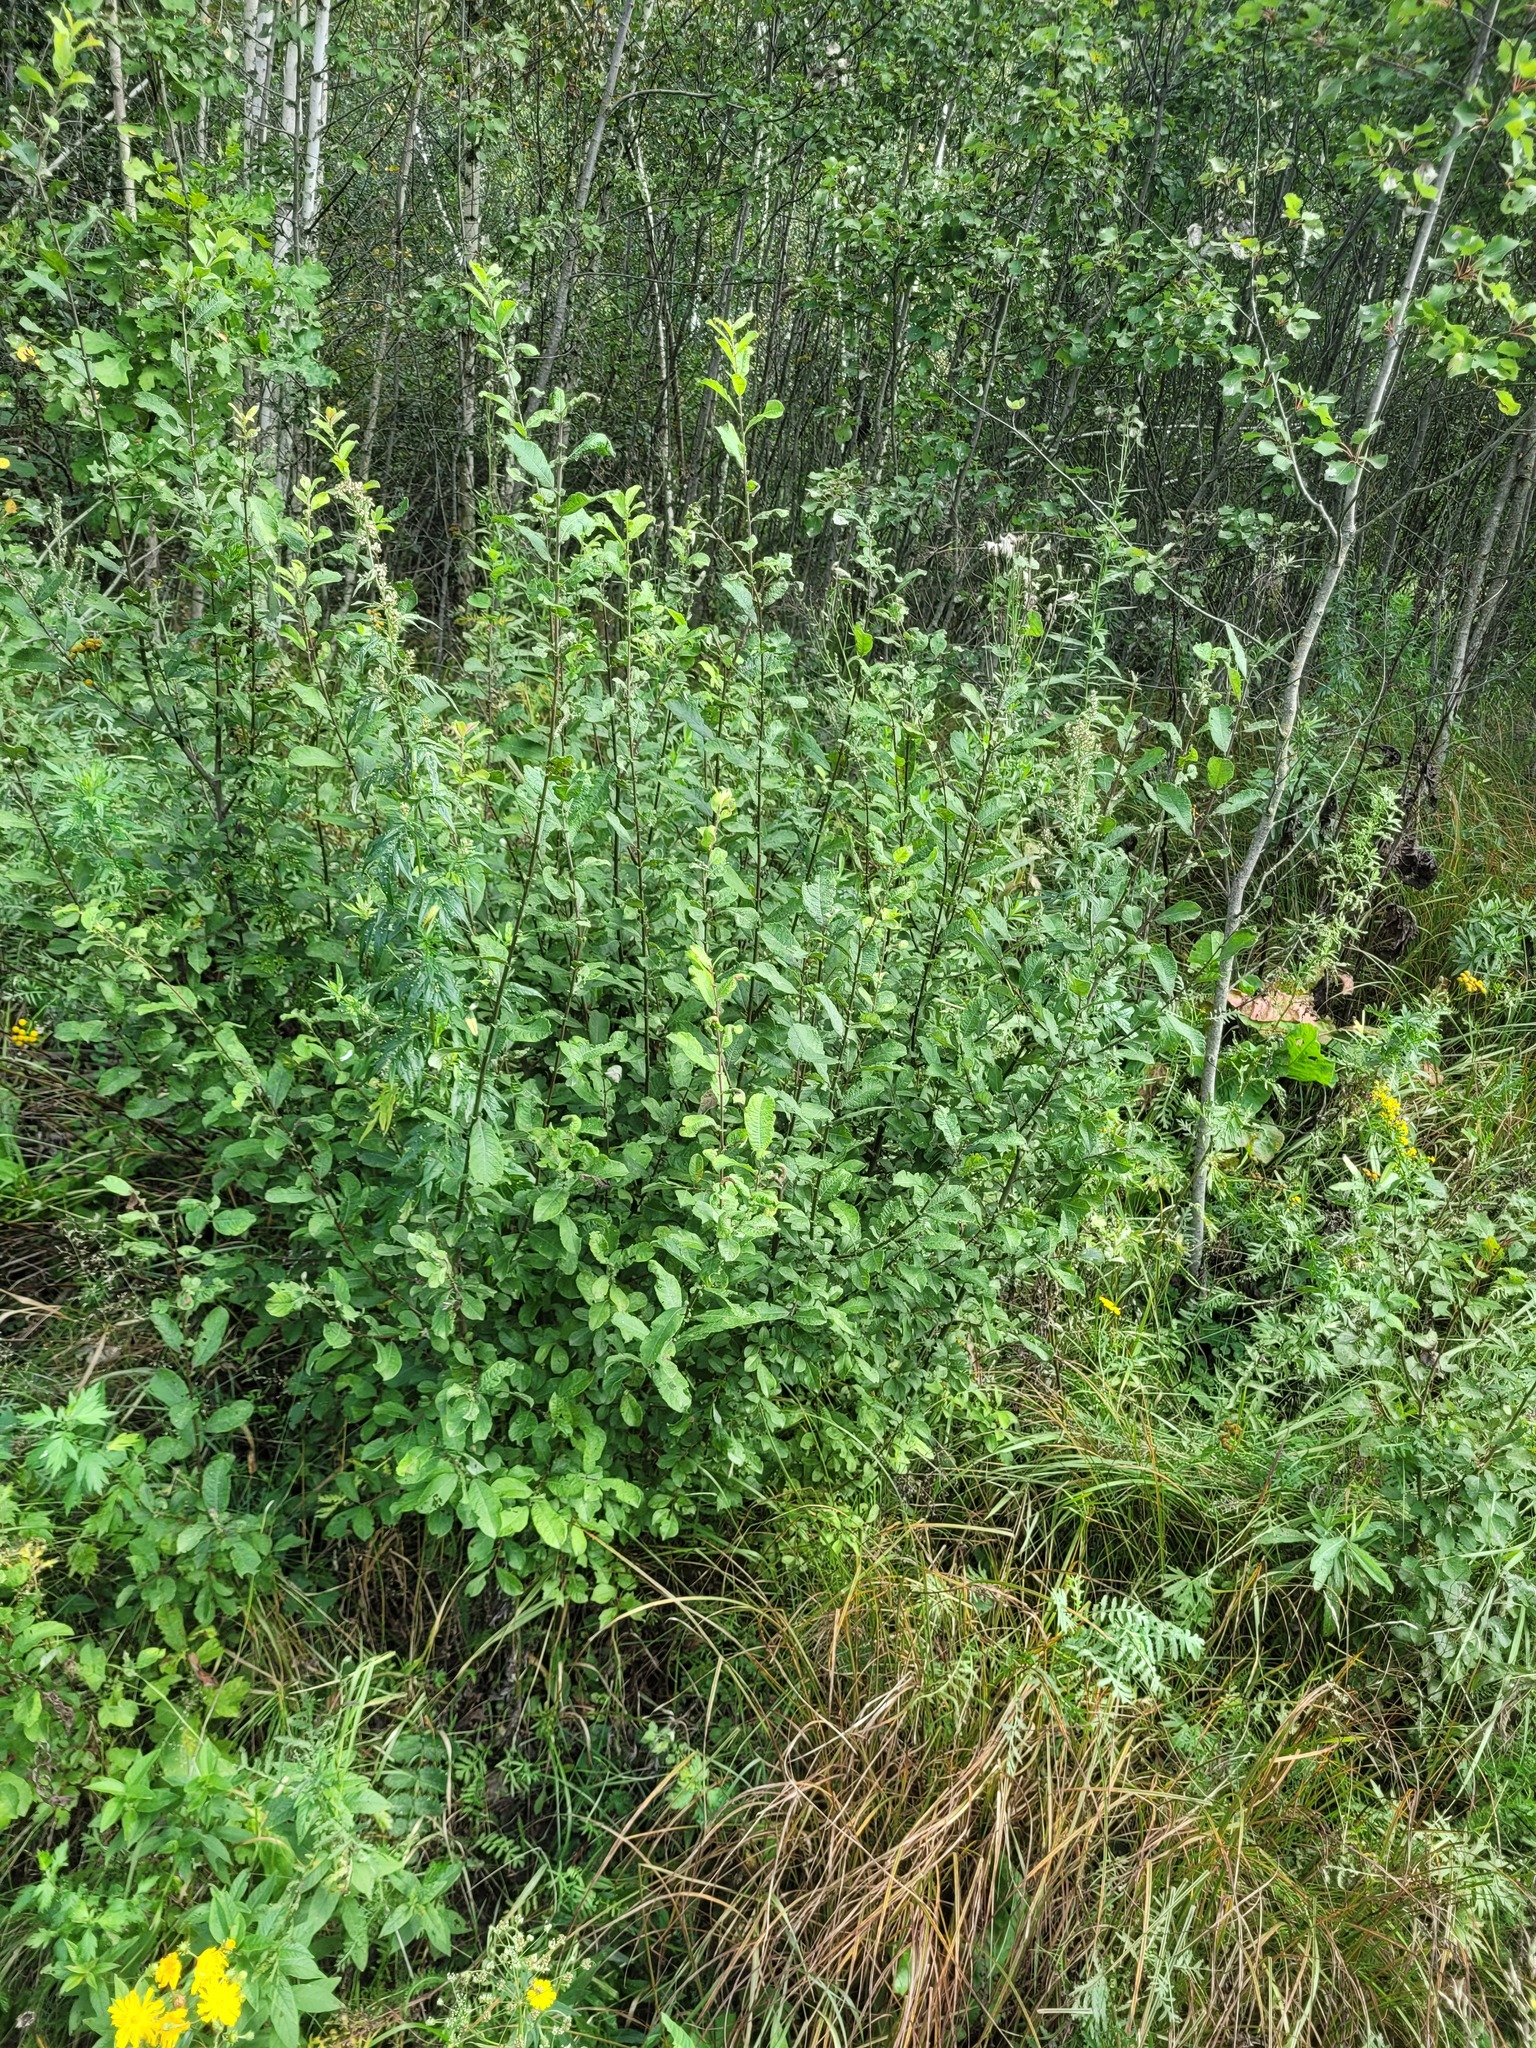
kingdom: Plantae
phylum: Tracheophyta
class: Magnoliopsida
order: Malpighiales
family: Salicaceae
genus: Salix
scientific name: Salix aurita
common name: Eared willow
